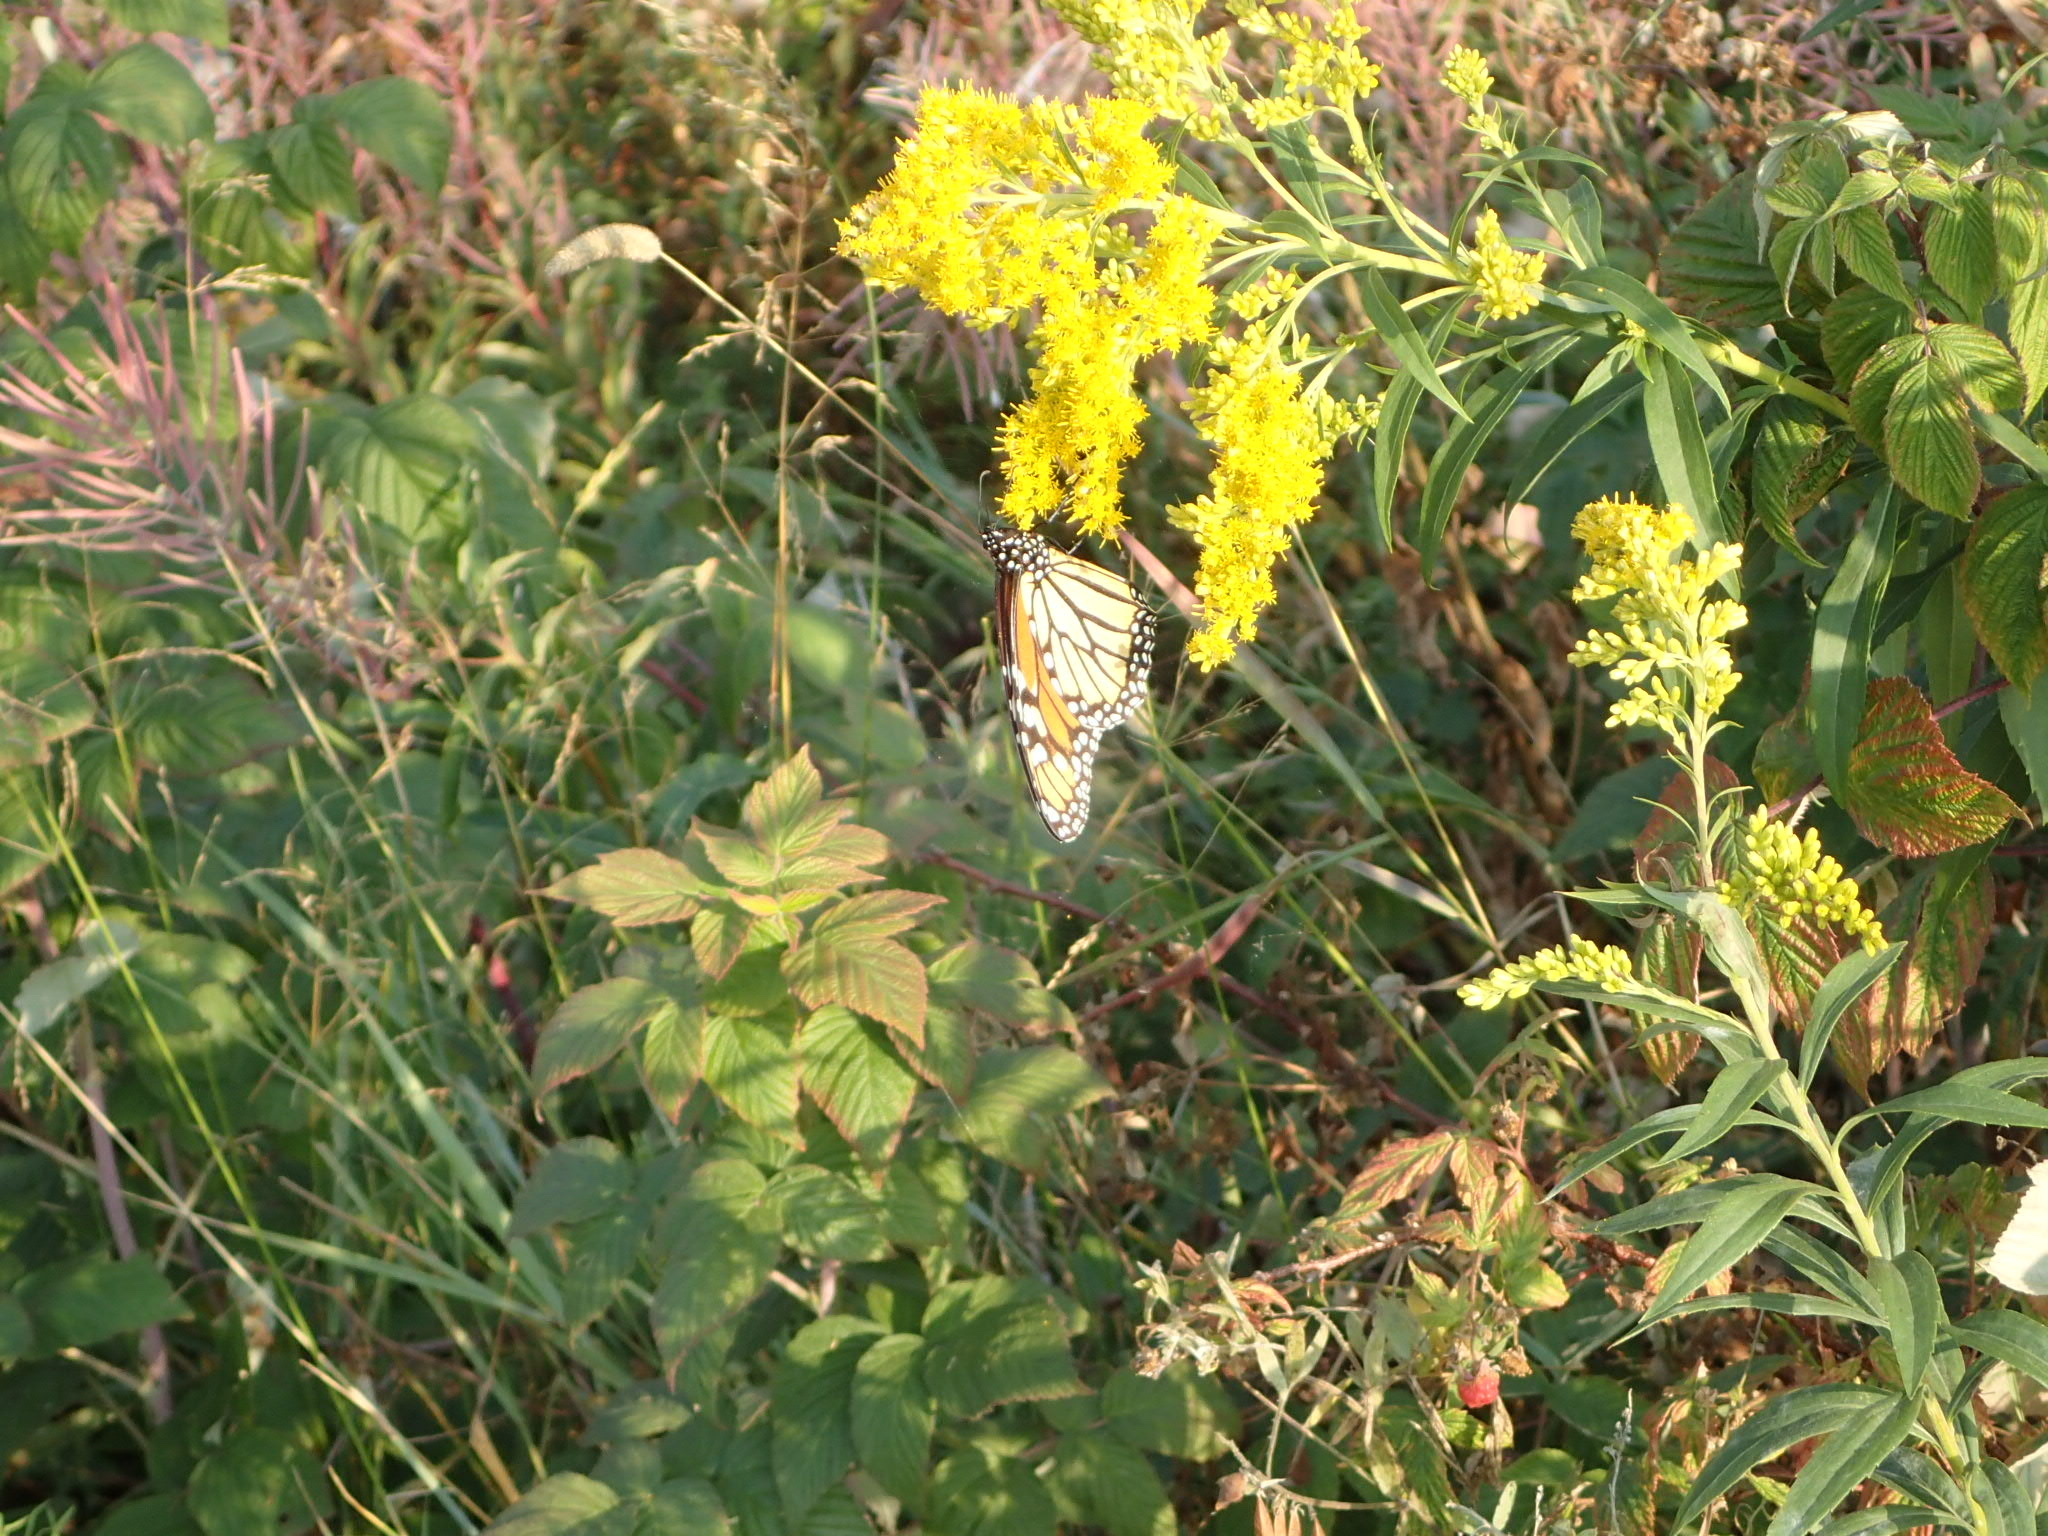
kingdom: Animalia
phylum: Arthropoda
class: Insecta
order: Lepidoptera
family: Nymphalidae
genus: Danaus
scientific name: Danaus plexippus
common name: Monarch
